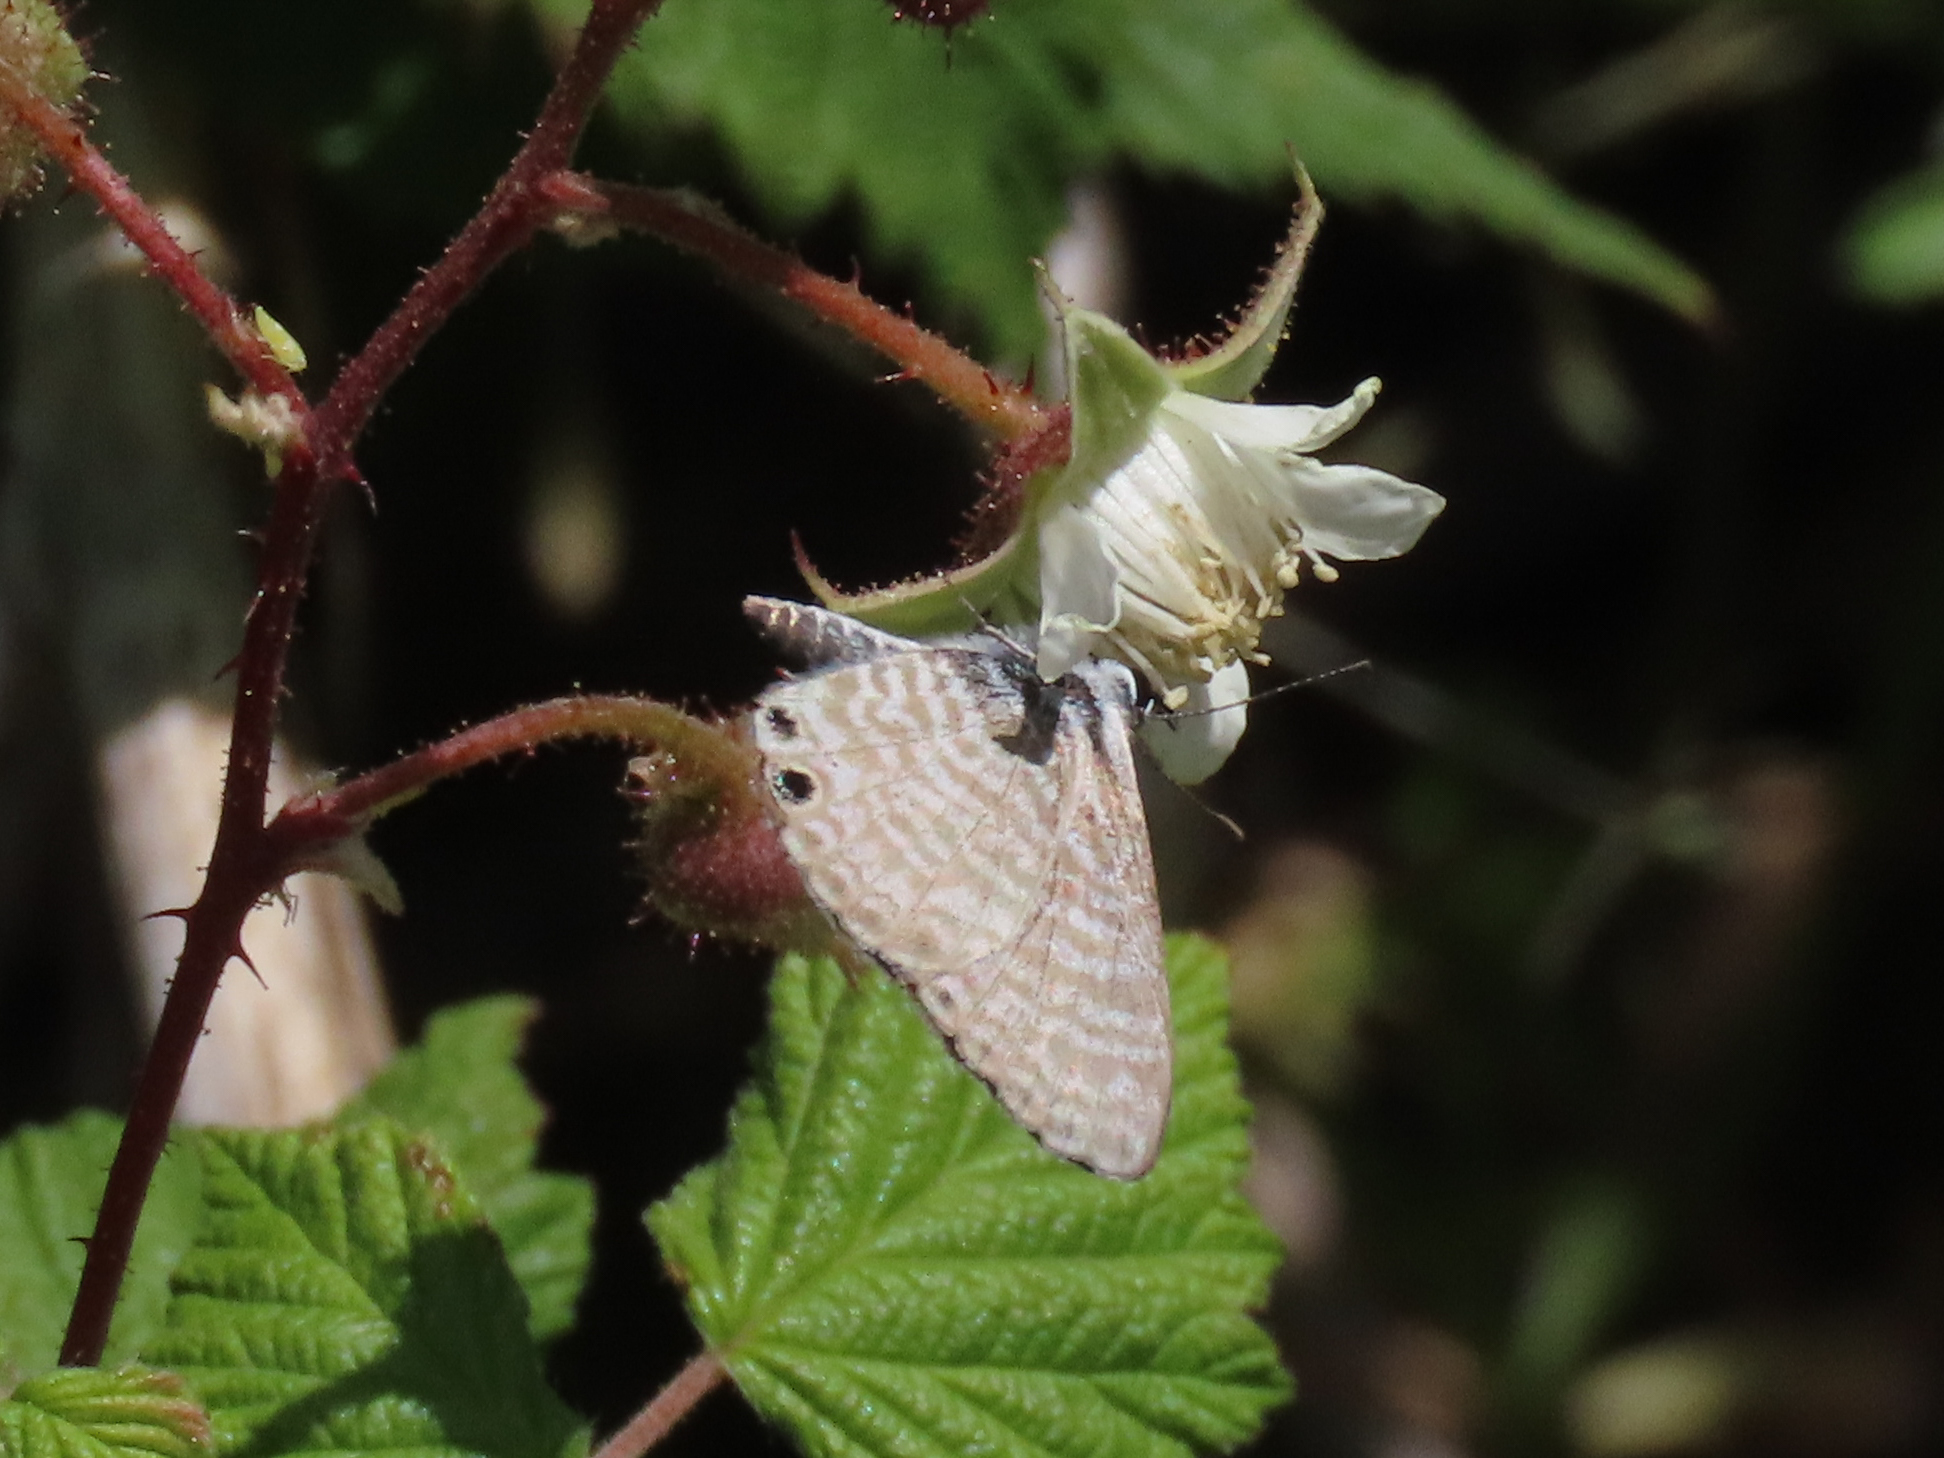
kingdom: Animalia
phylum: Arthropoda
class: Insecta
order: Lepidoptera
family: Lycaenidae
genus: Leptotes
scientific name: Leptotes marina
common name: Marine blue
